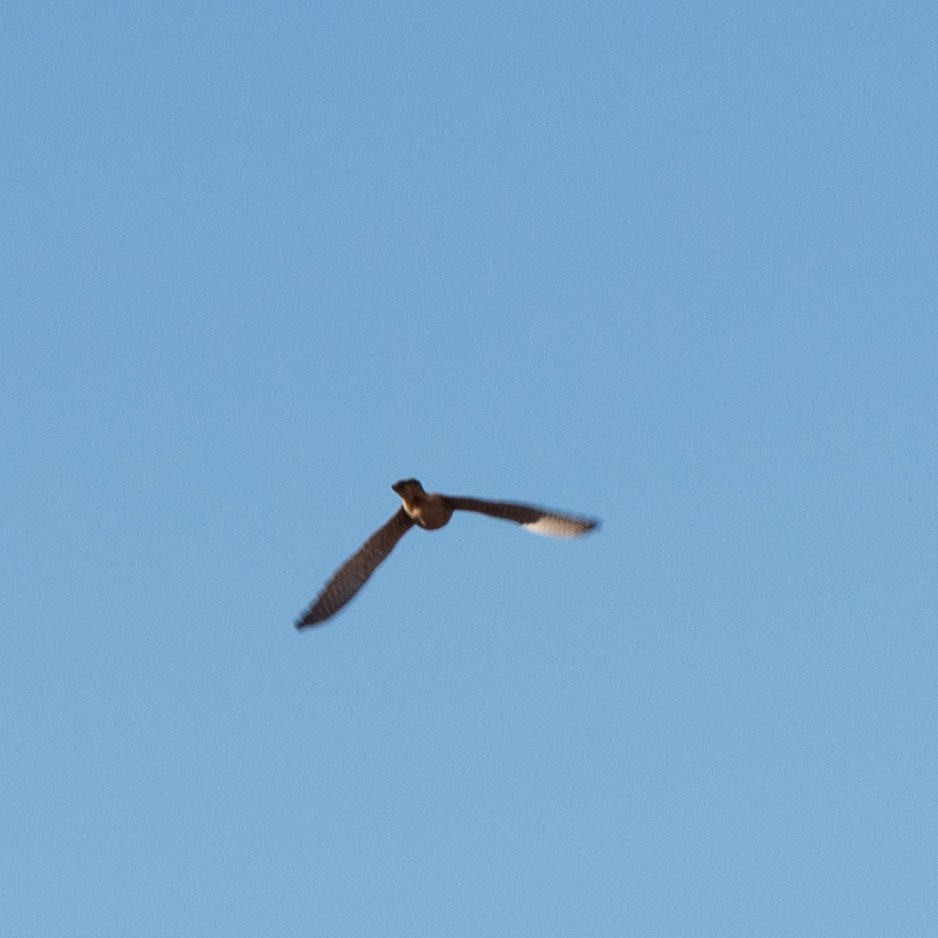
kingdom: Animalia
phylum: Chordata
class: Aves
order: Falconiformes
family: Falconidae
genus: Falco
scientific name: Falco tinnunculus
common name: Common kestrel
